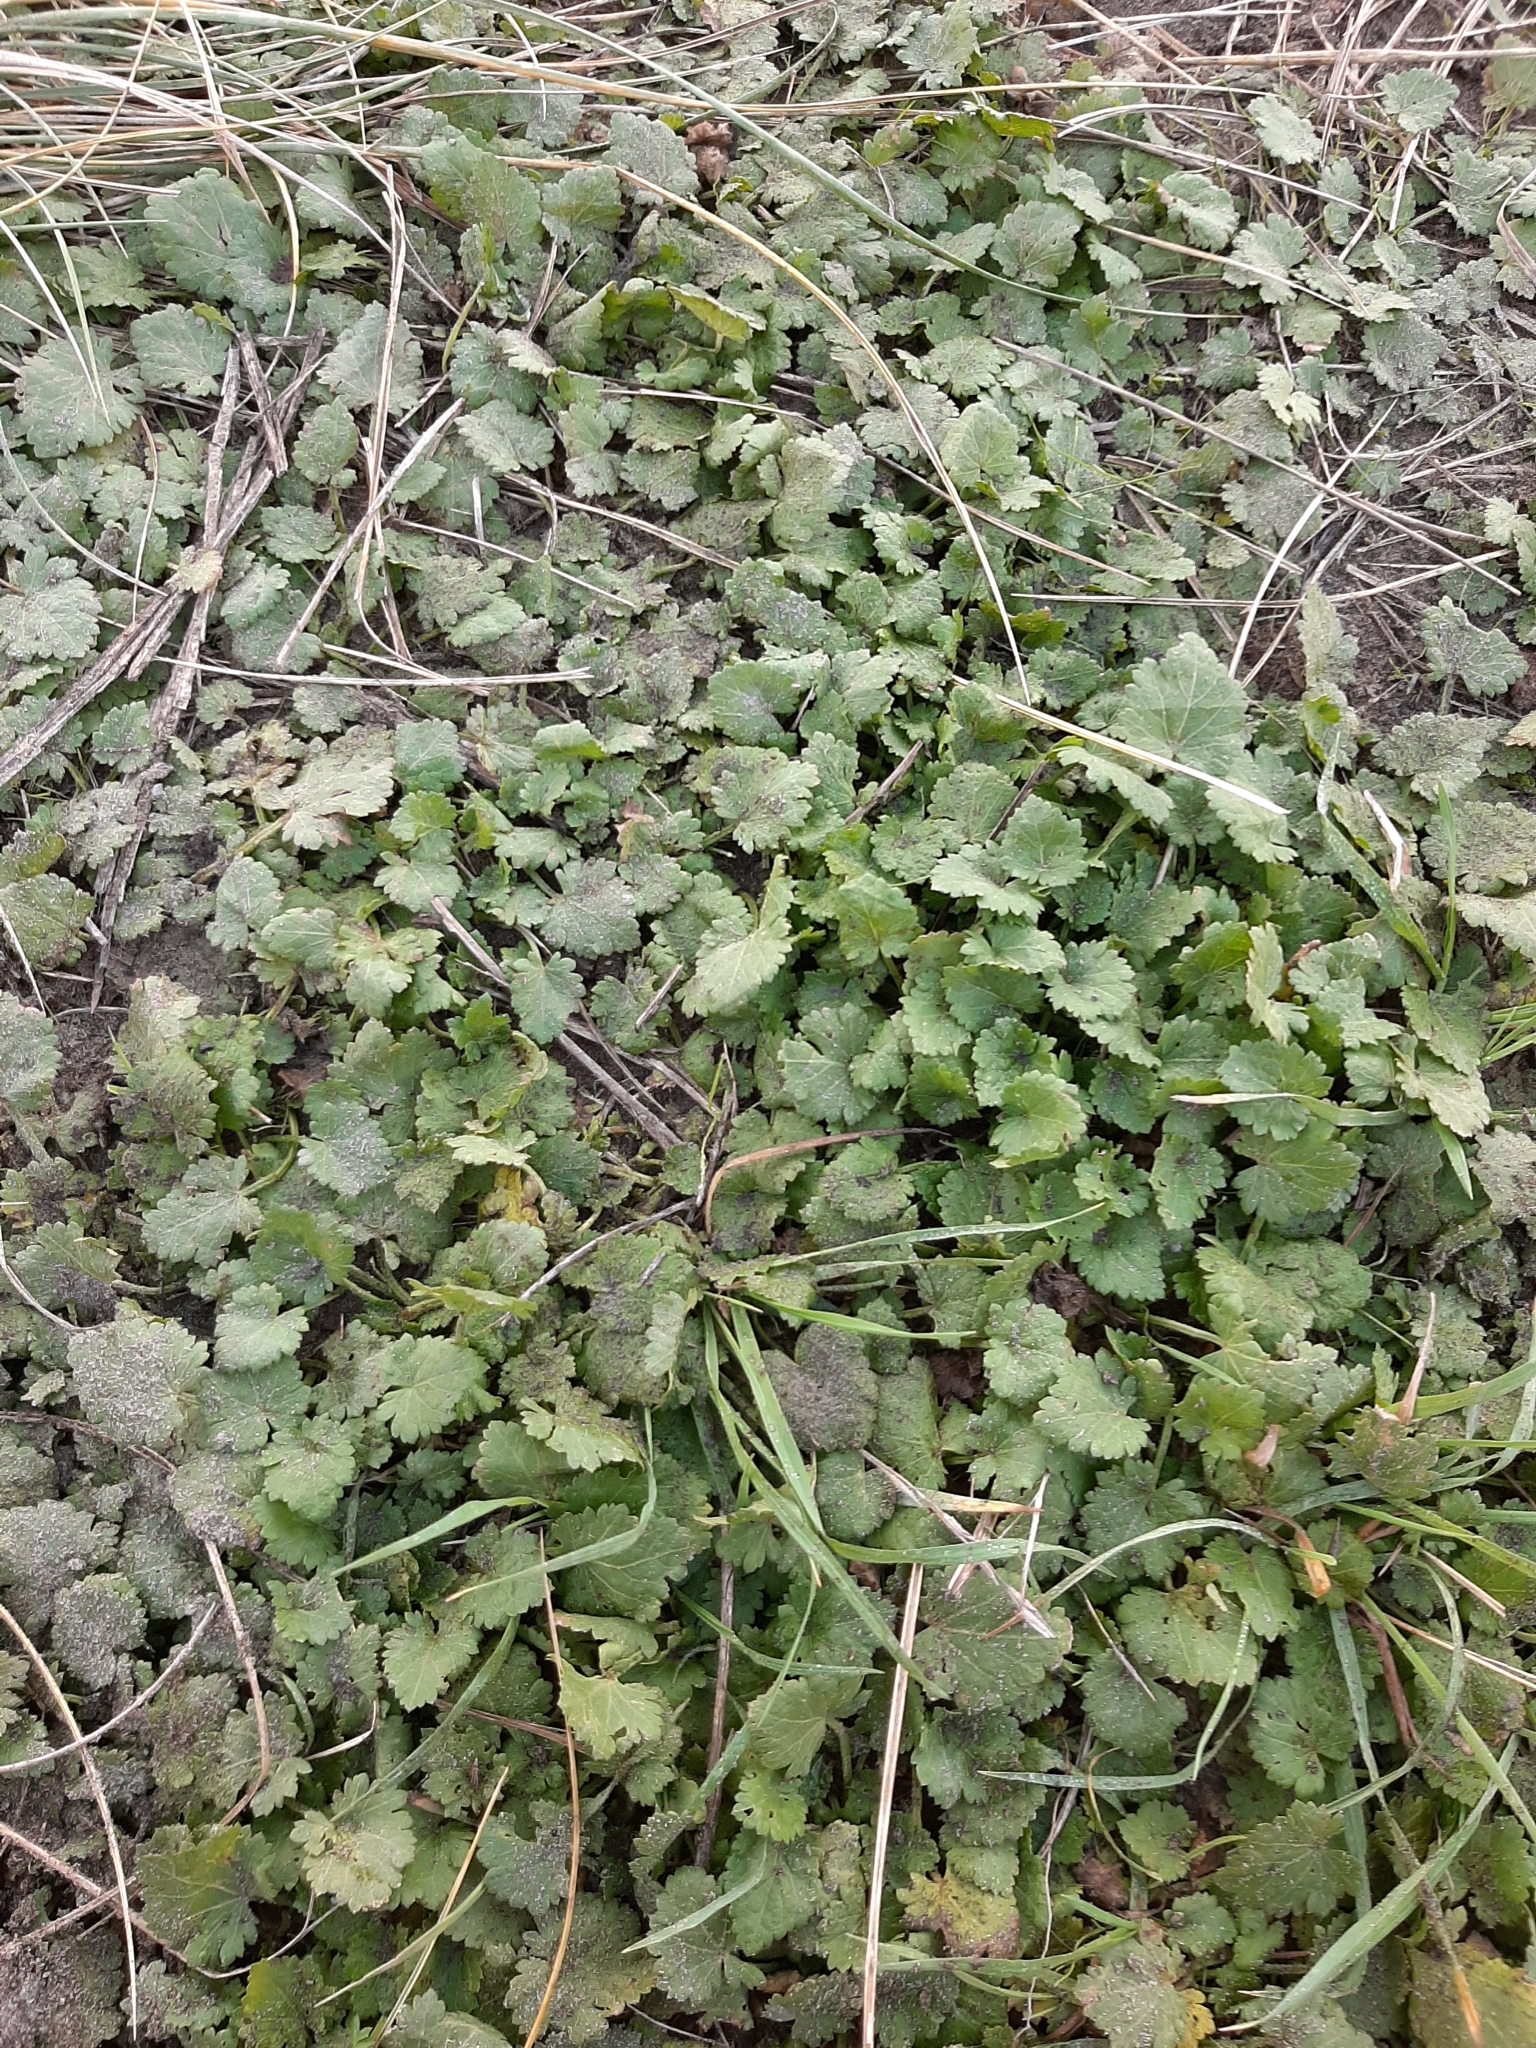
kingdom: Plantae
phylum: Tracheophyta
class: Magnoliopsida
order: Malvales
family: Malvaceae
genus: Modiola
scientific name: Modiola caroliniana
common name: Carolina bristlemallow
